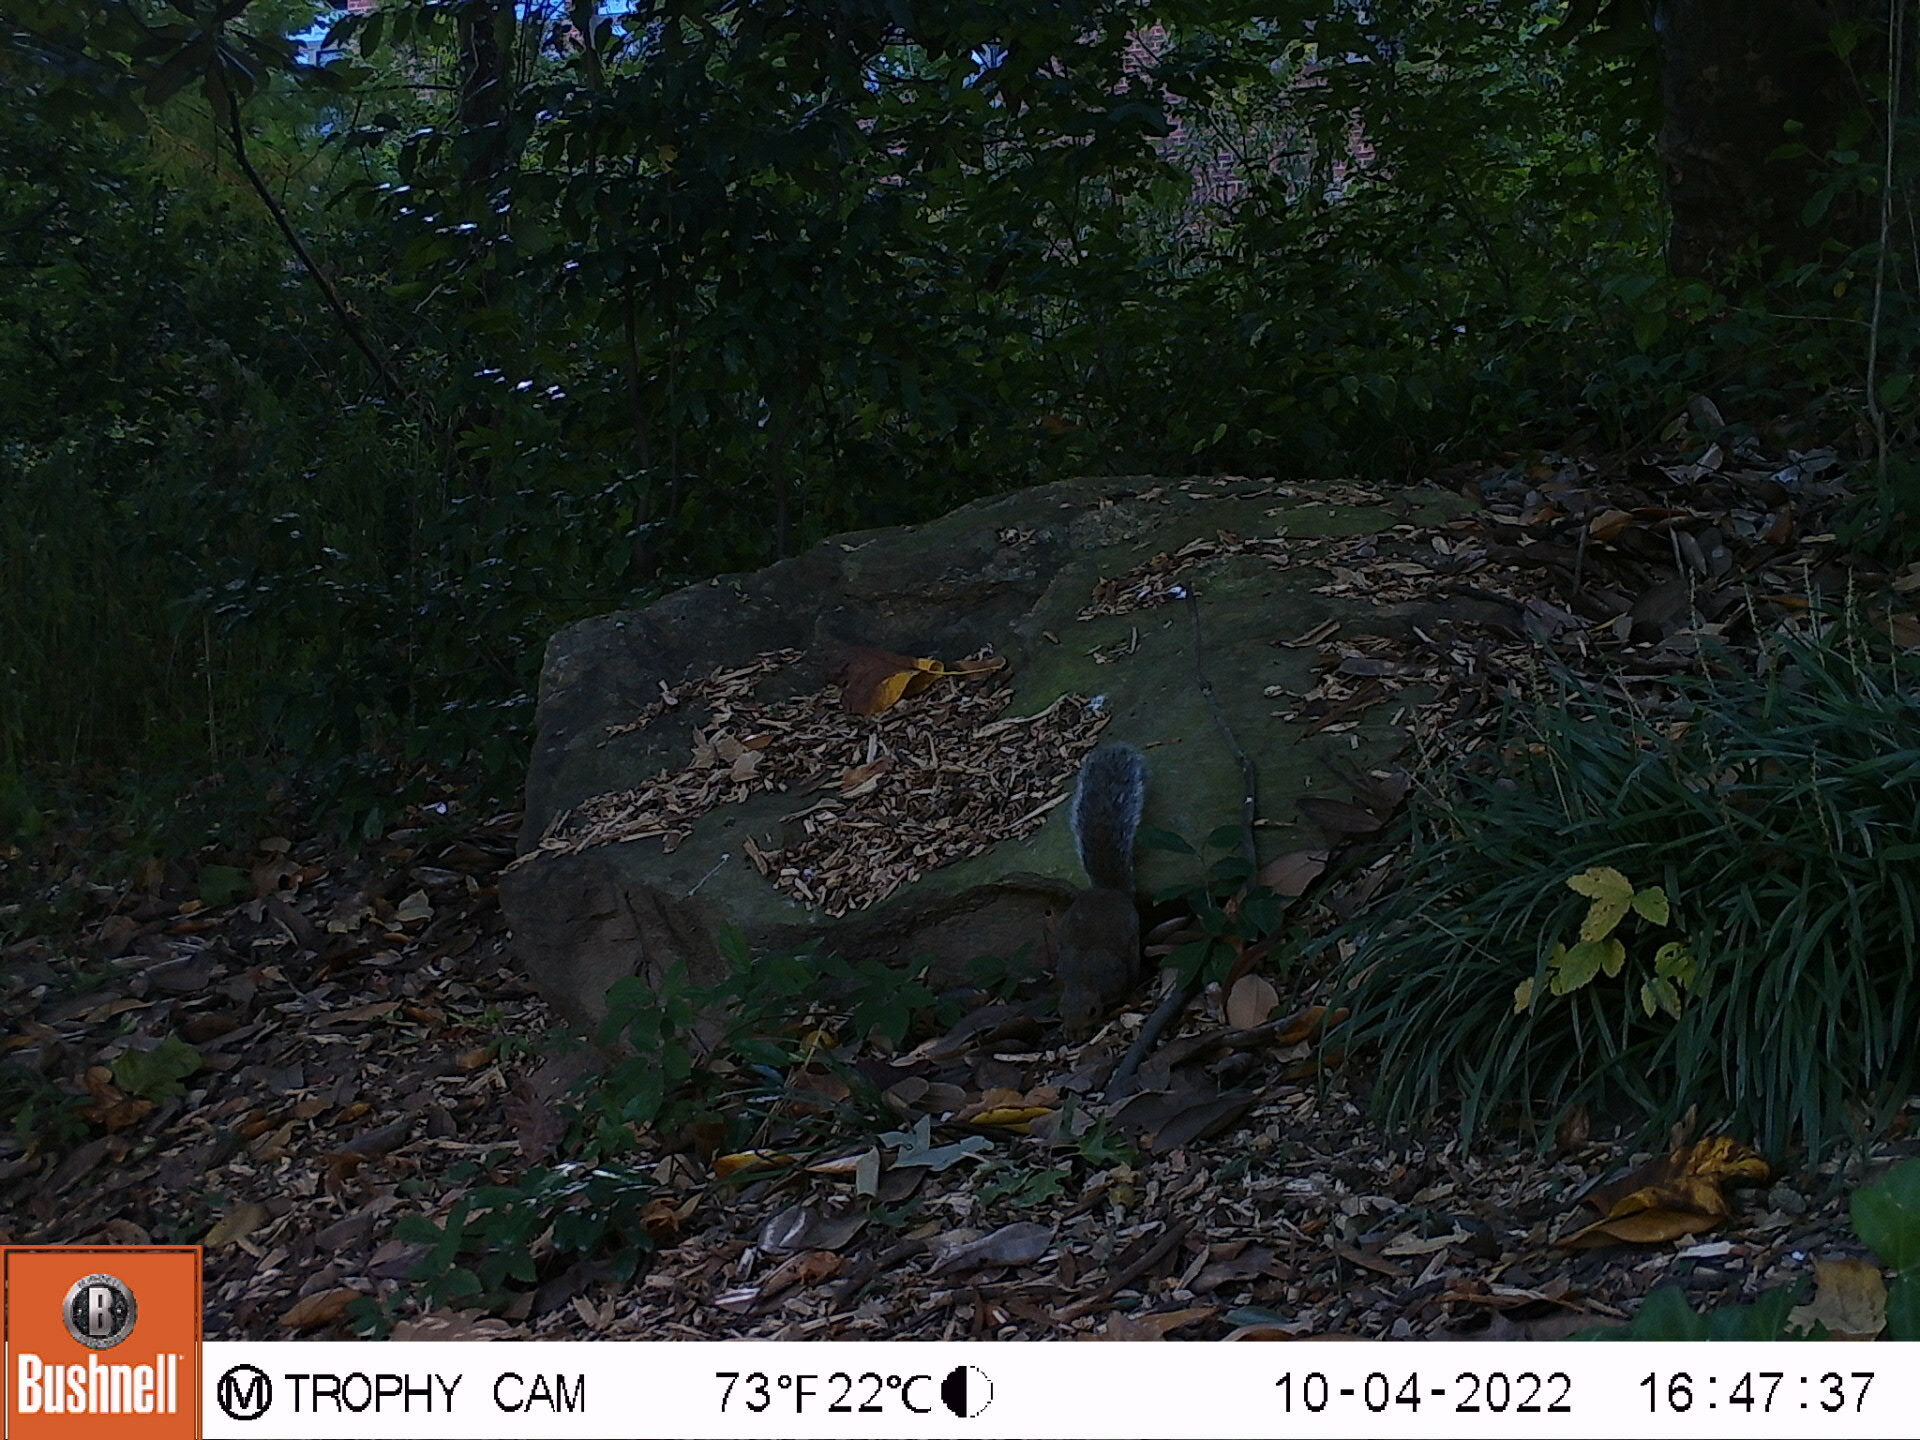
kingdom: Animalia
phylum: Chordata
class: Mammalia
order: Rodentia
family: Sciuridae
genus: Sciurus
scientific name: Sciurus carolinensis
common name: Eastern gray squirrel
